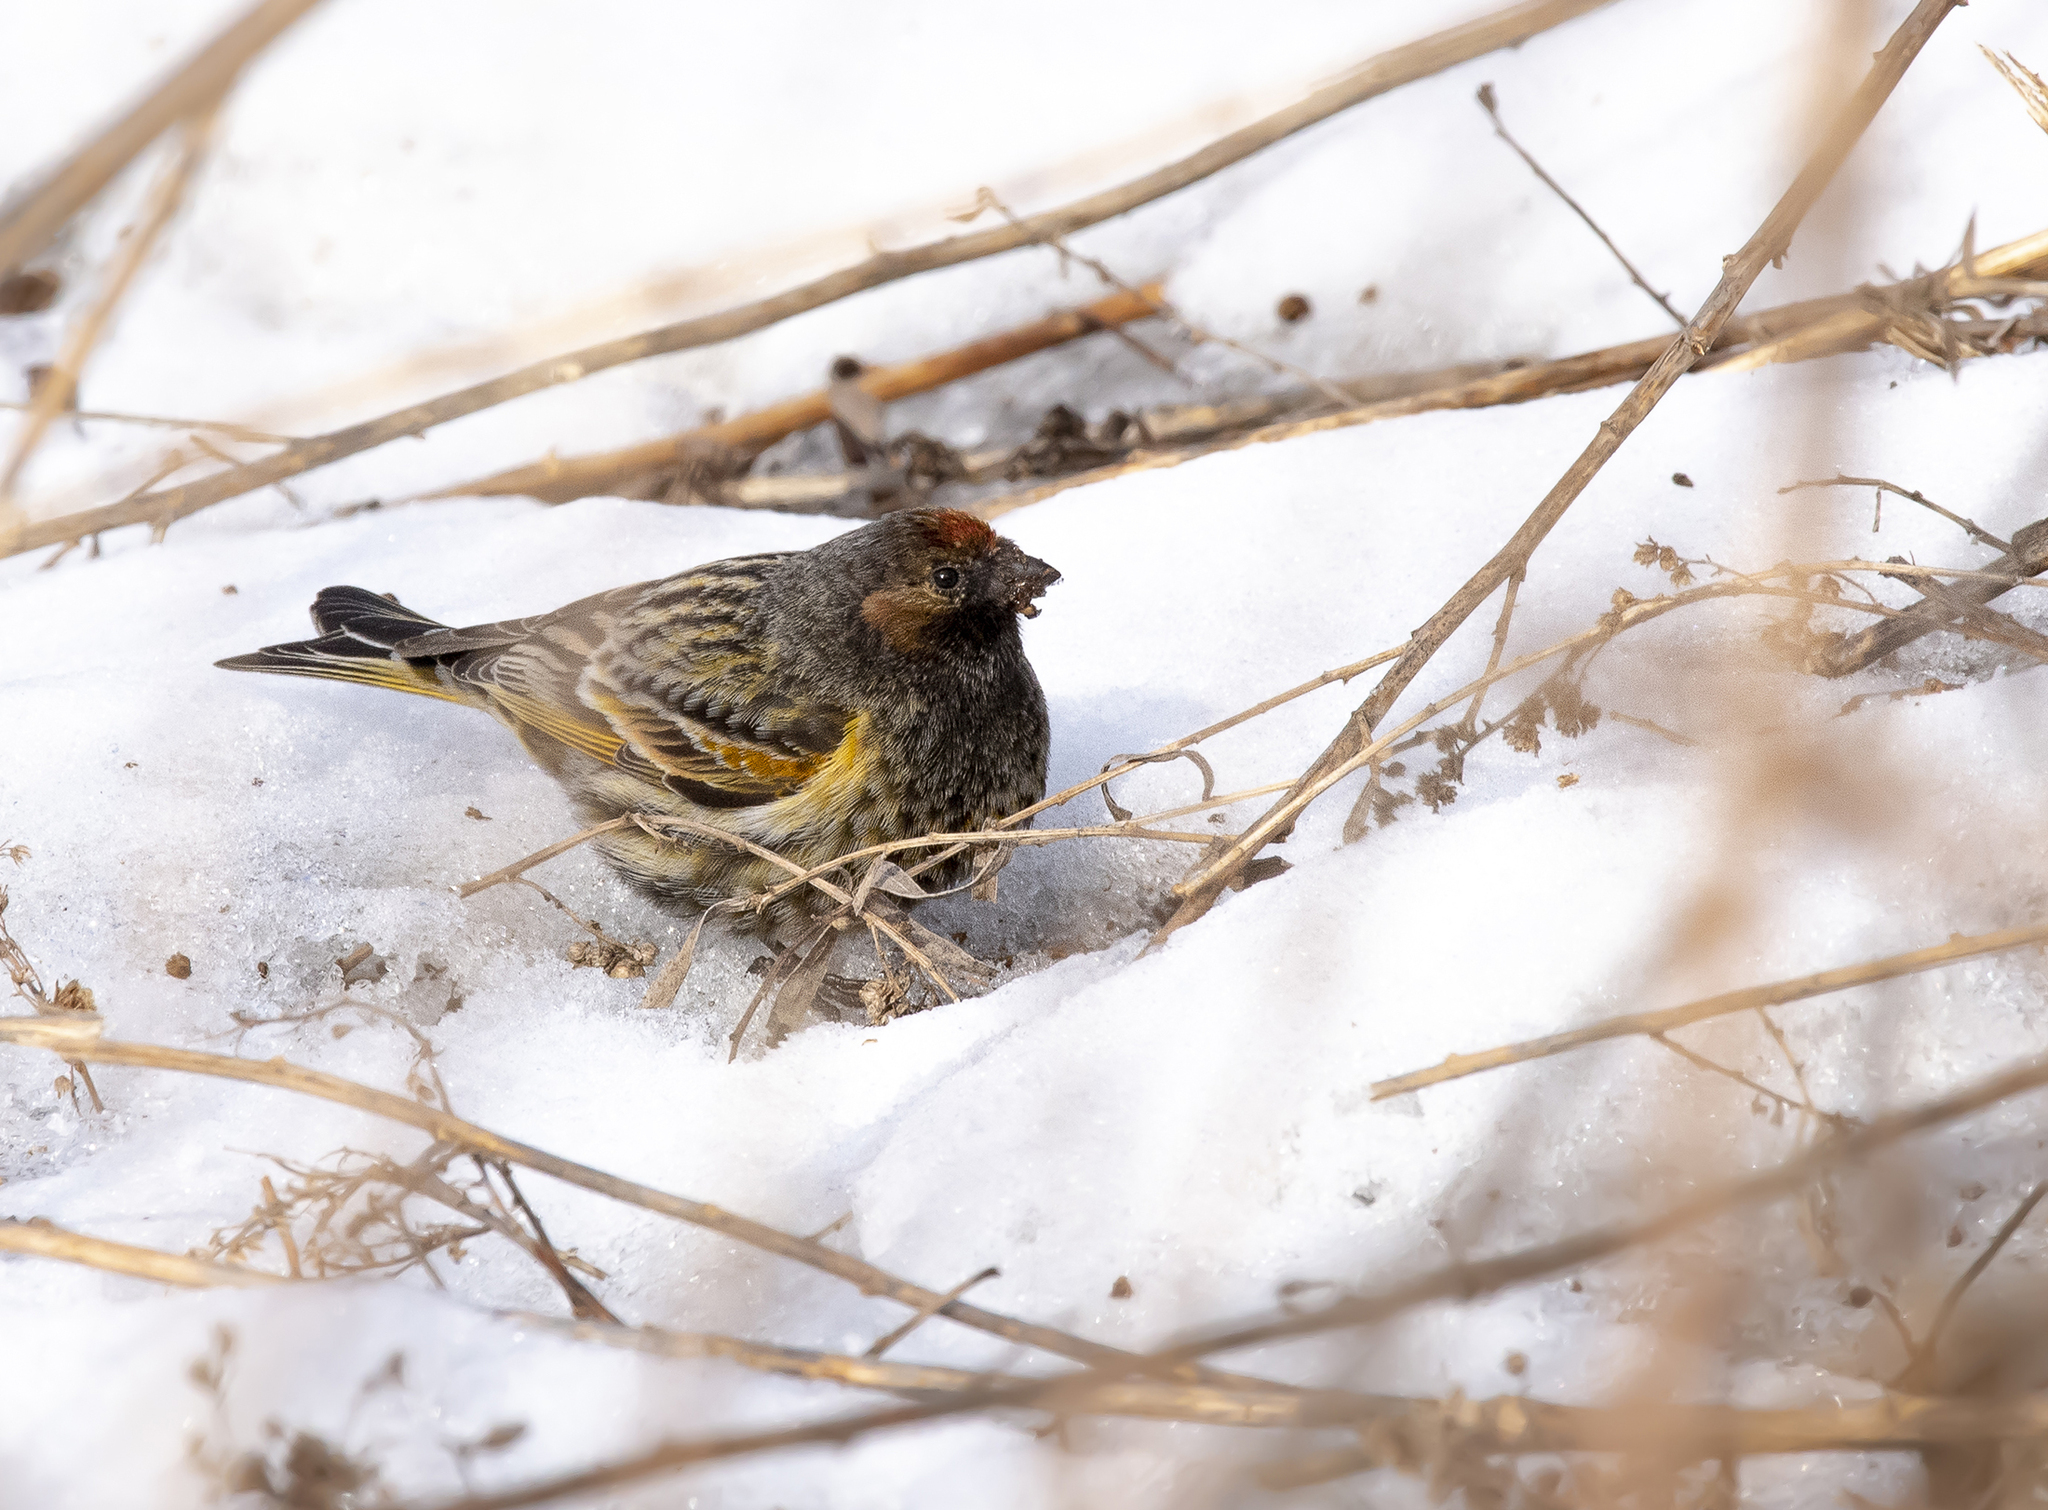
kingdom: Animalia
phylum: Chordata
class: Aves
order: Passeriformes
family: Fringillidae
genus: Serinus
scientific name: Serinus pusillus
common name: Red-fronted serin
